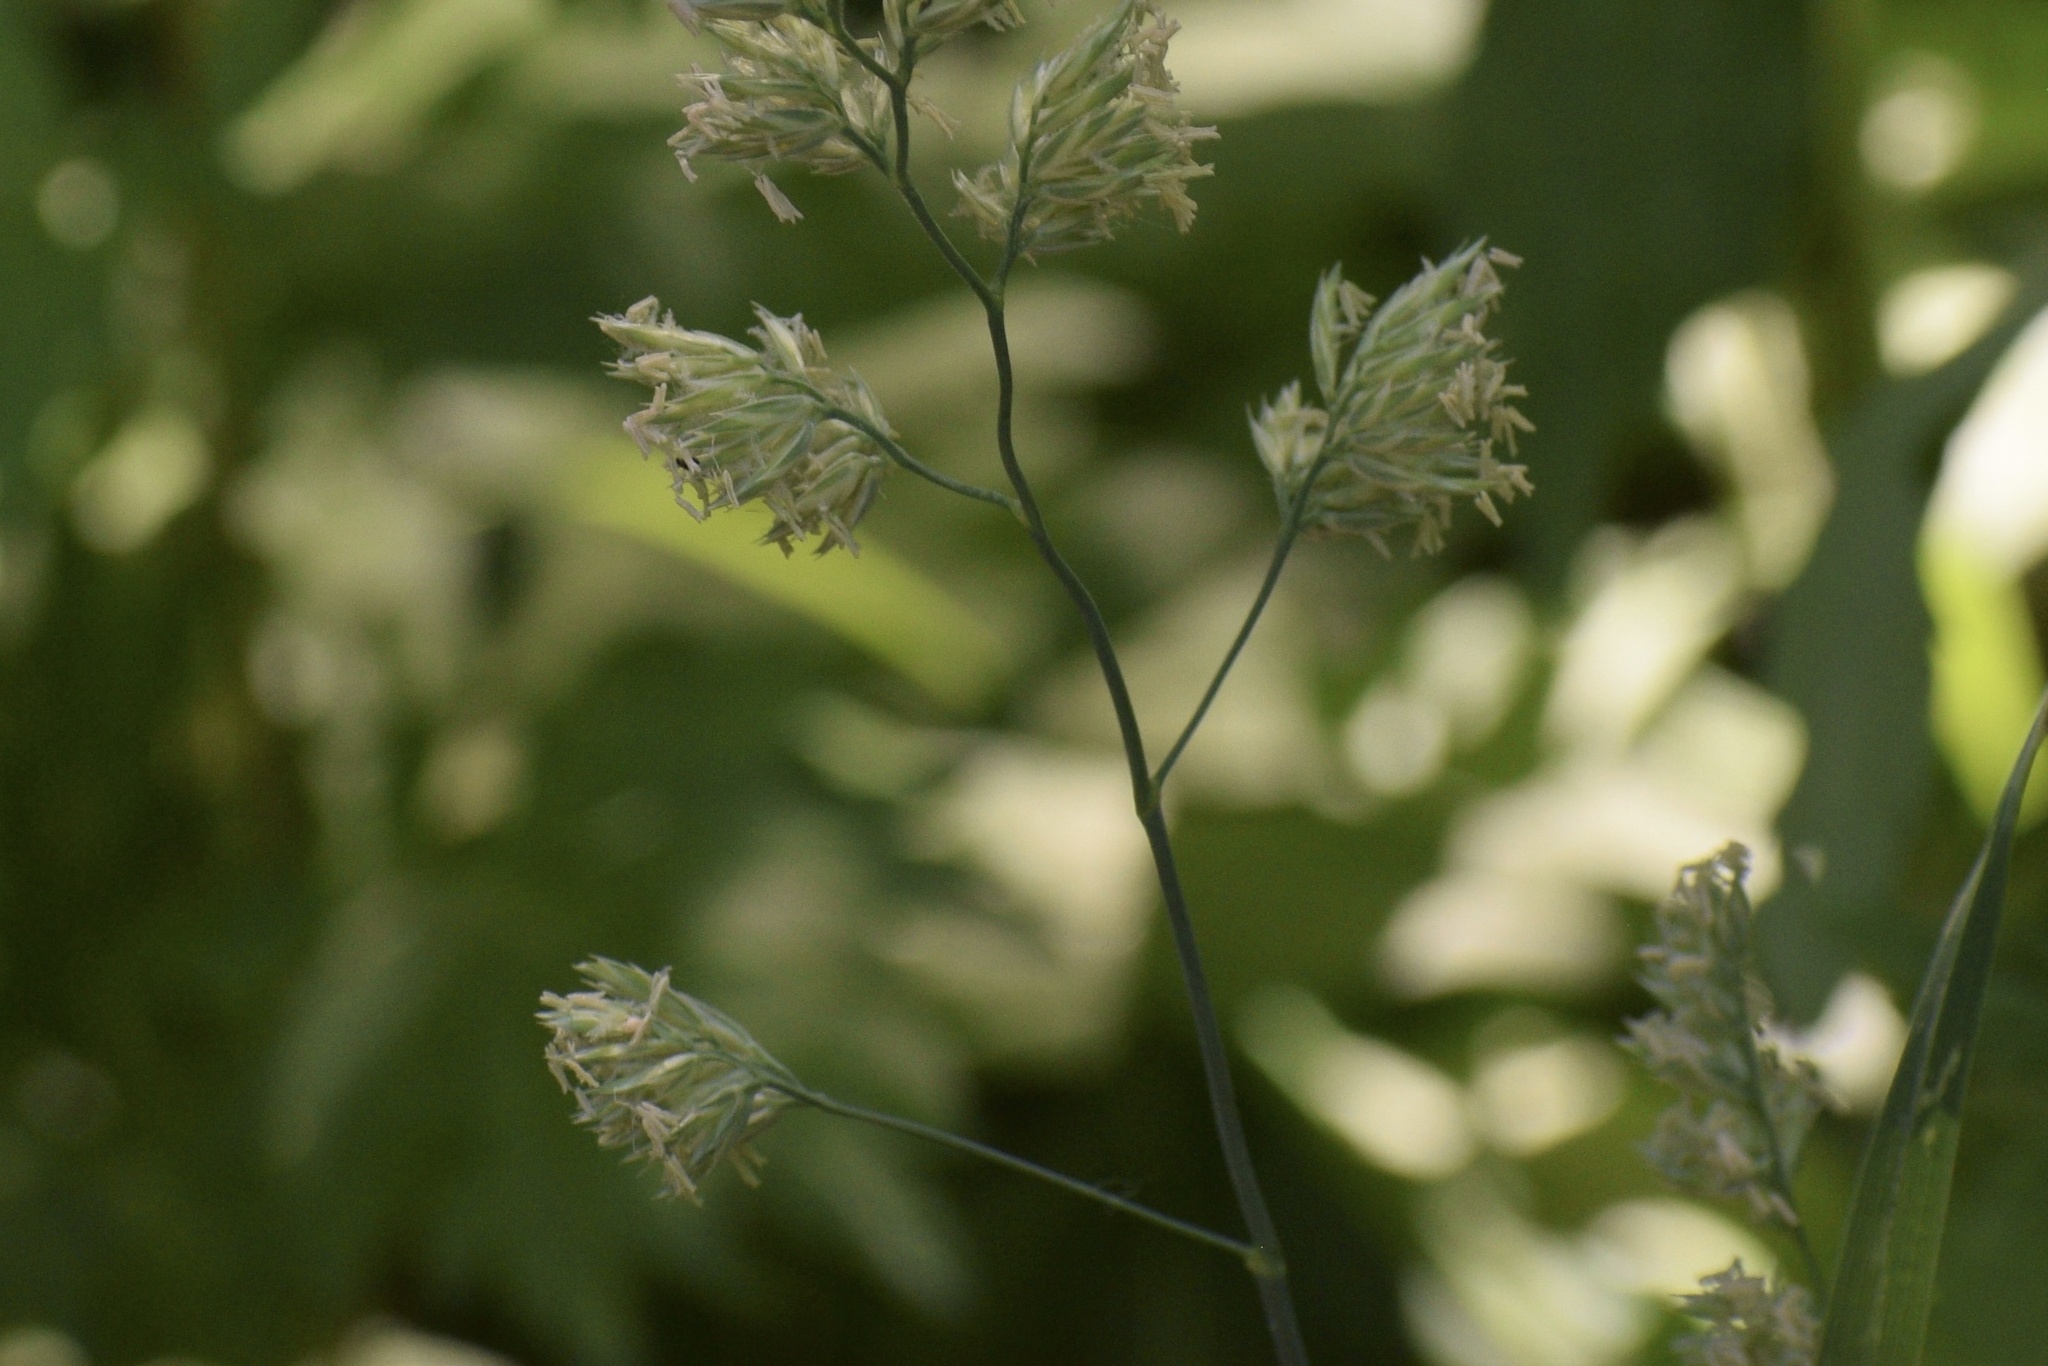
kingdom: Plantae
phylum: Tracheophyta
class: Liliopsida
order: Poales
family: Poaceae
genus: Dactylis
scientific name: Dactylis glomerata
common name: Orchardgrass
